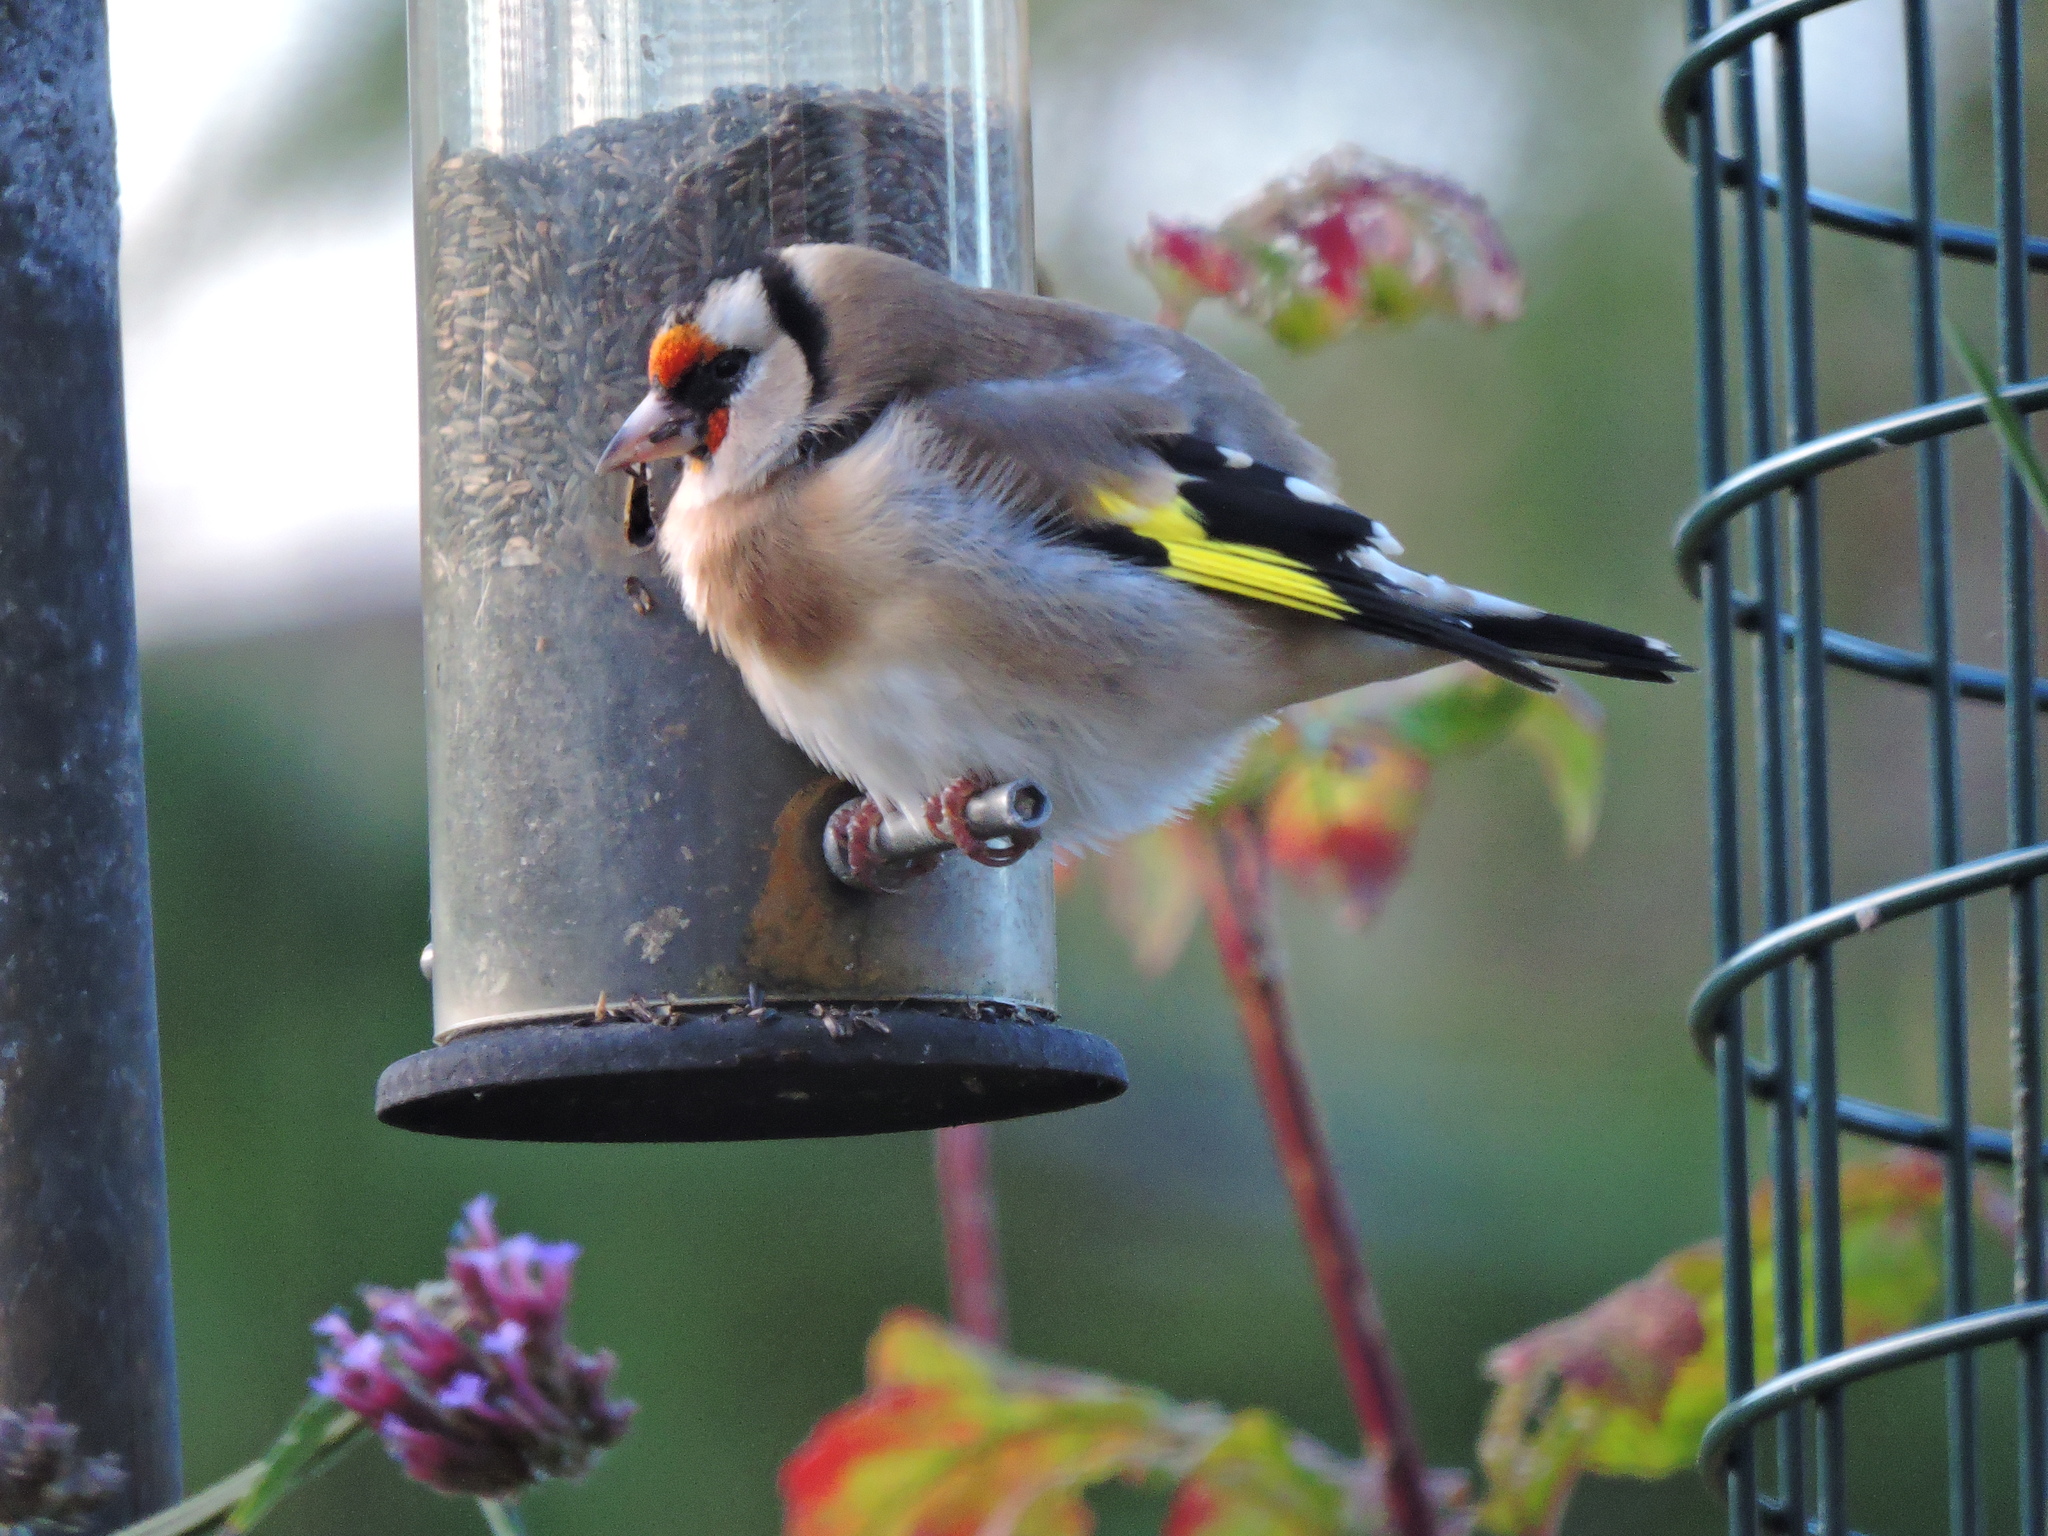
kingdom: Animalia
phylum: Chordata
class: Aves
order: Passeriformes
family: Fringillidae
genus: Carduelis
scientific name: Carduelis carduelis
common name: European goldfinch
